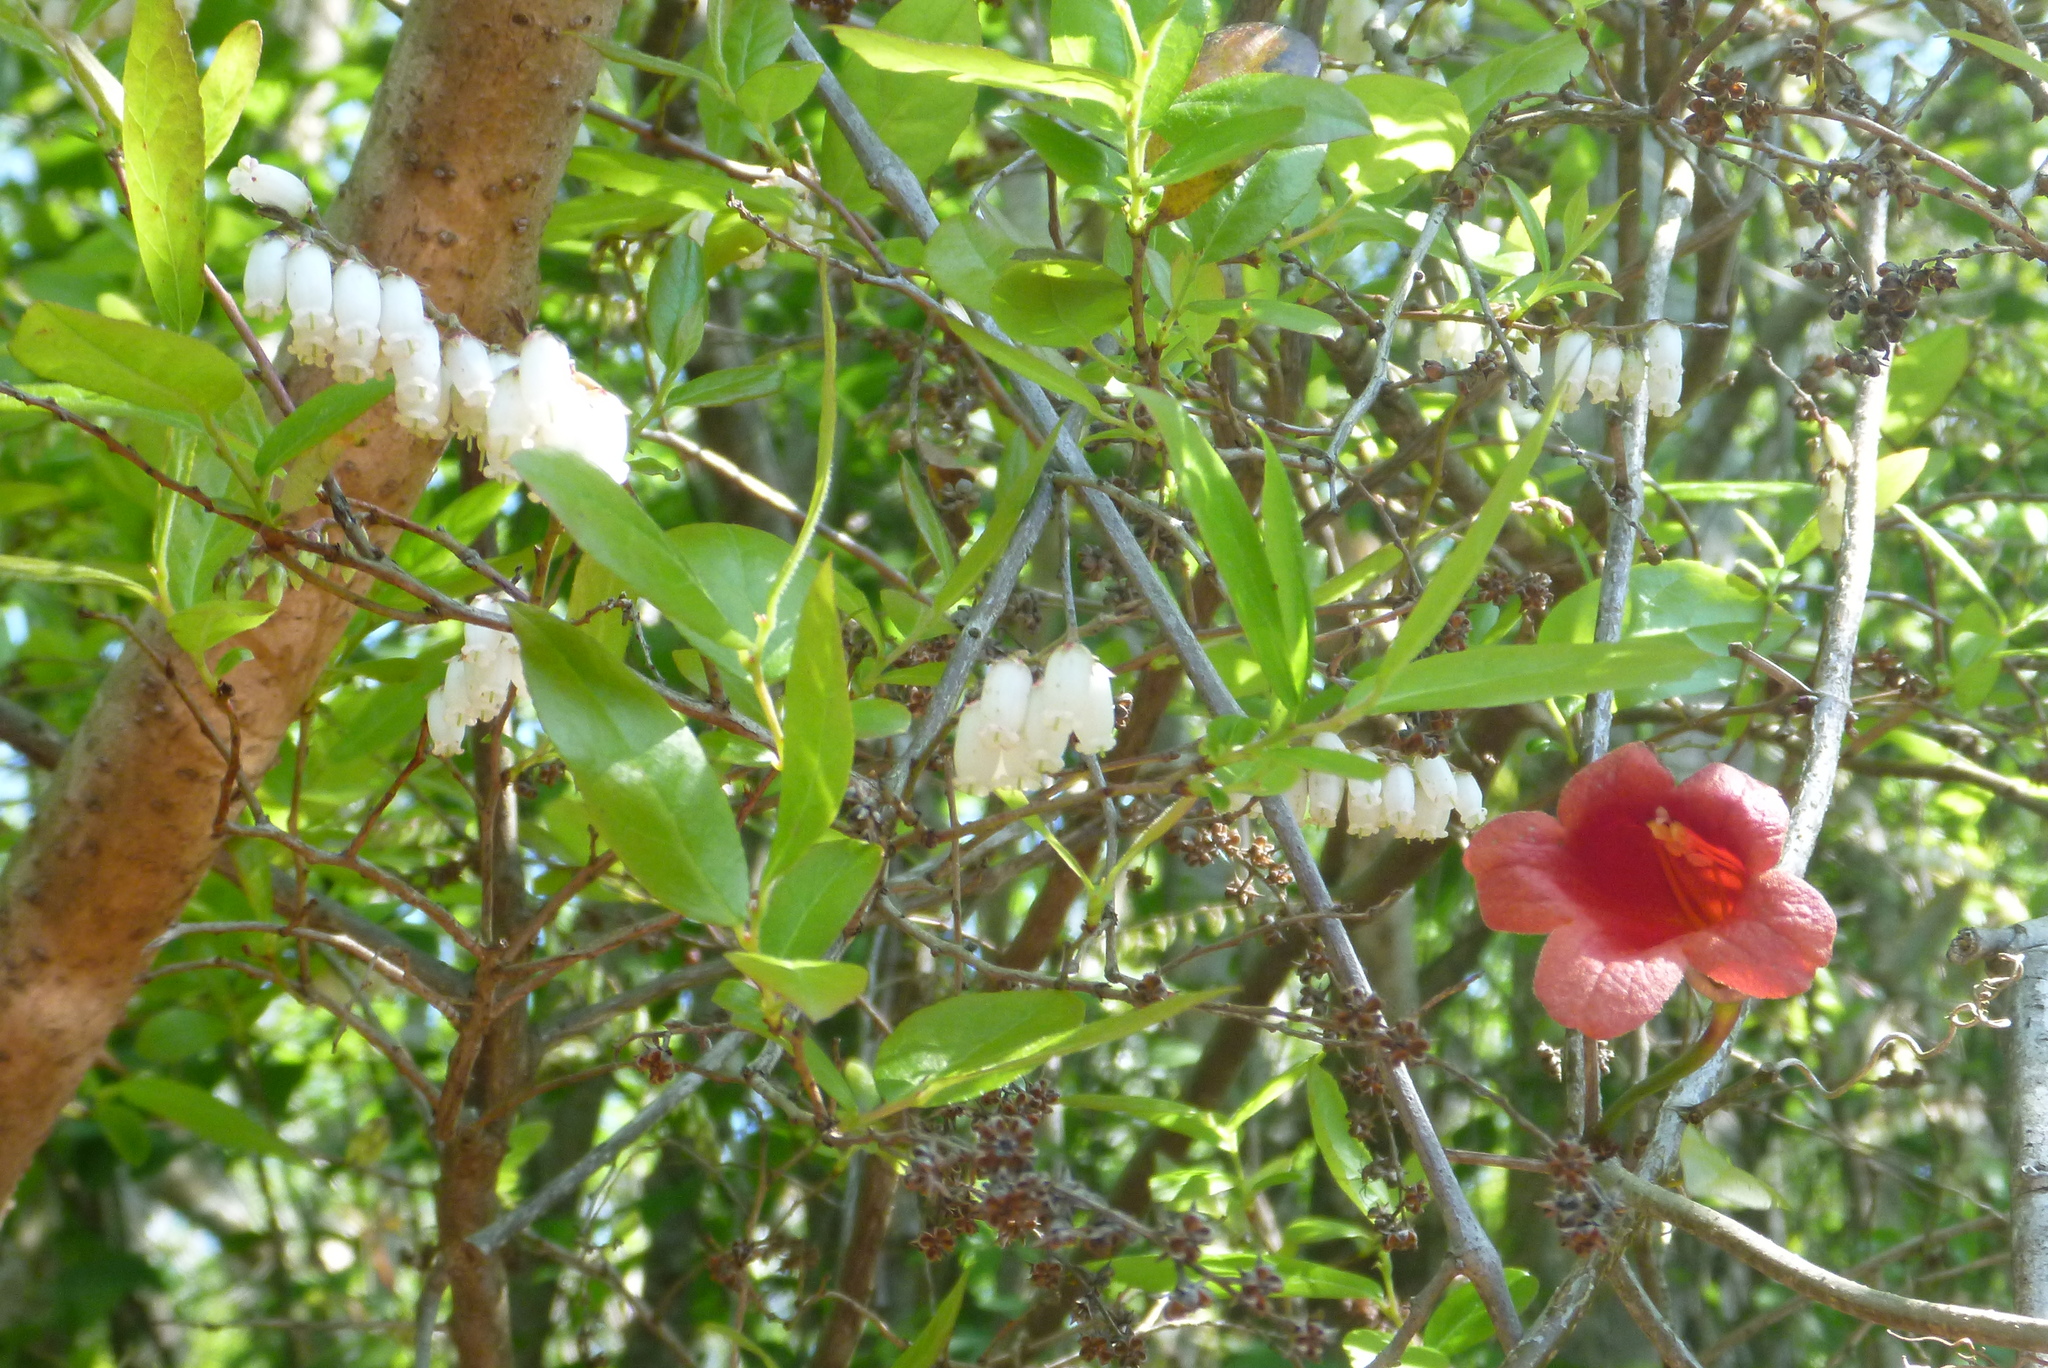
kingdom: Plantae
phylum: Tracheophyta
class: Magnoliopsida
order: Ericales
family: Ericaceae
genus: Eubotrys
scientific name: Eubotrys racemosa
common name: Fetterbush
